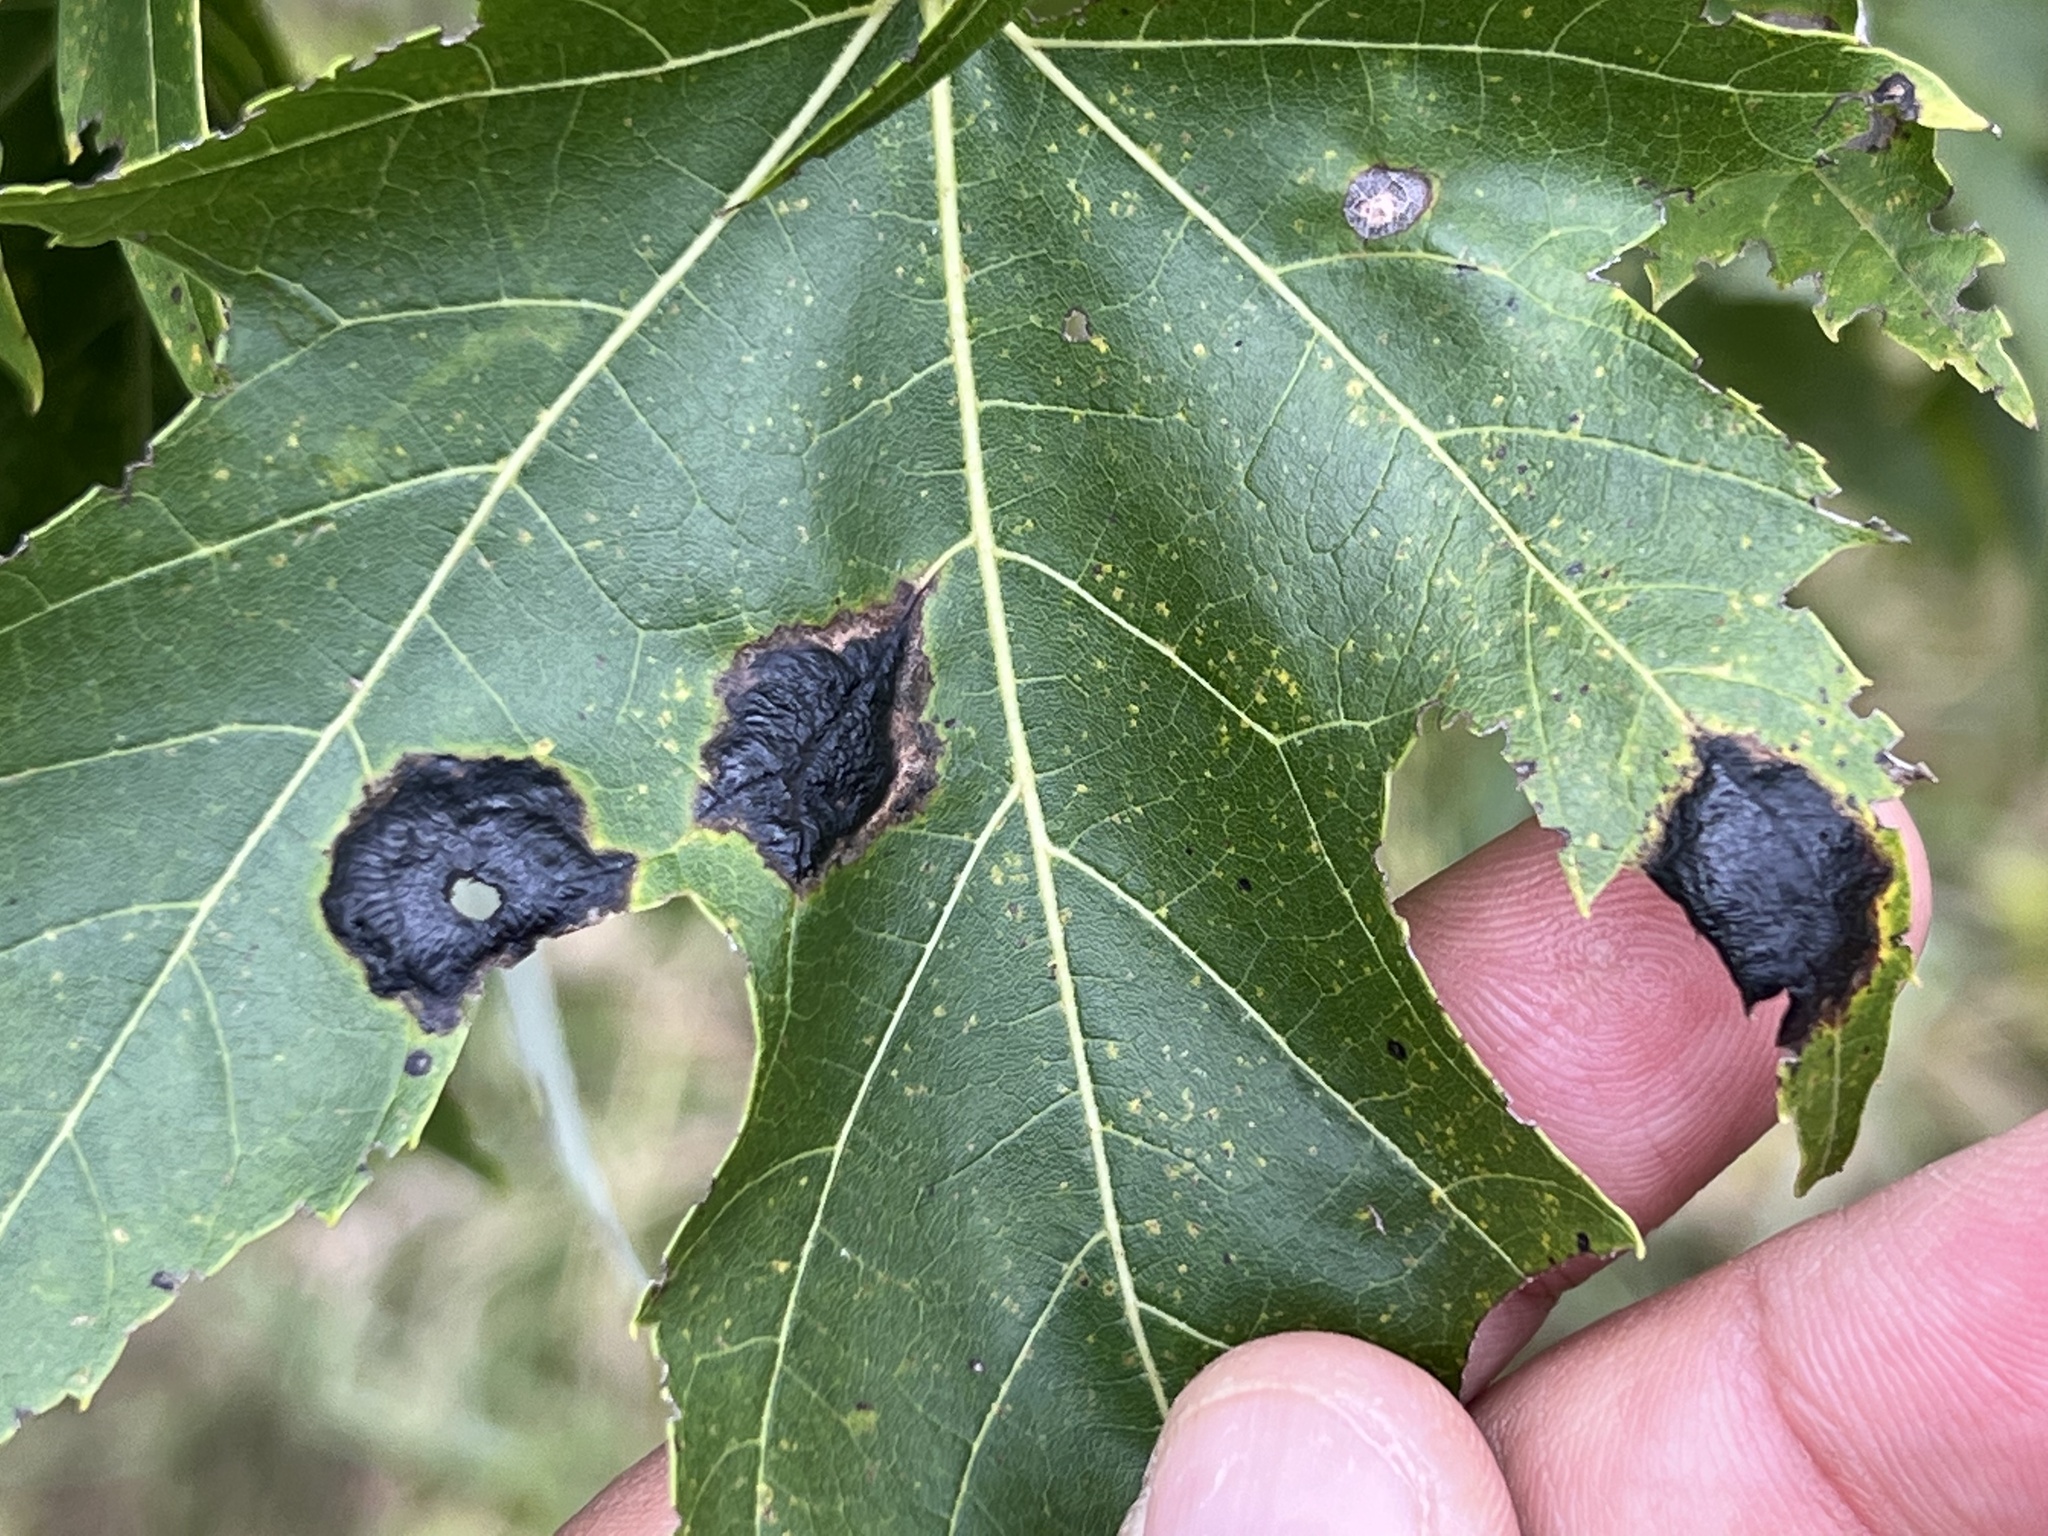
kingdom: Fungi
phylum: Ascomycota
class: Leotiomycetes
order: Rhytismatales
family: Rhytismataceae
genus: Rhytisma
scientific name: Rhytisma acerinum
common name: European tar spot
